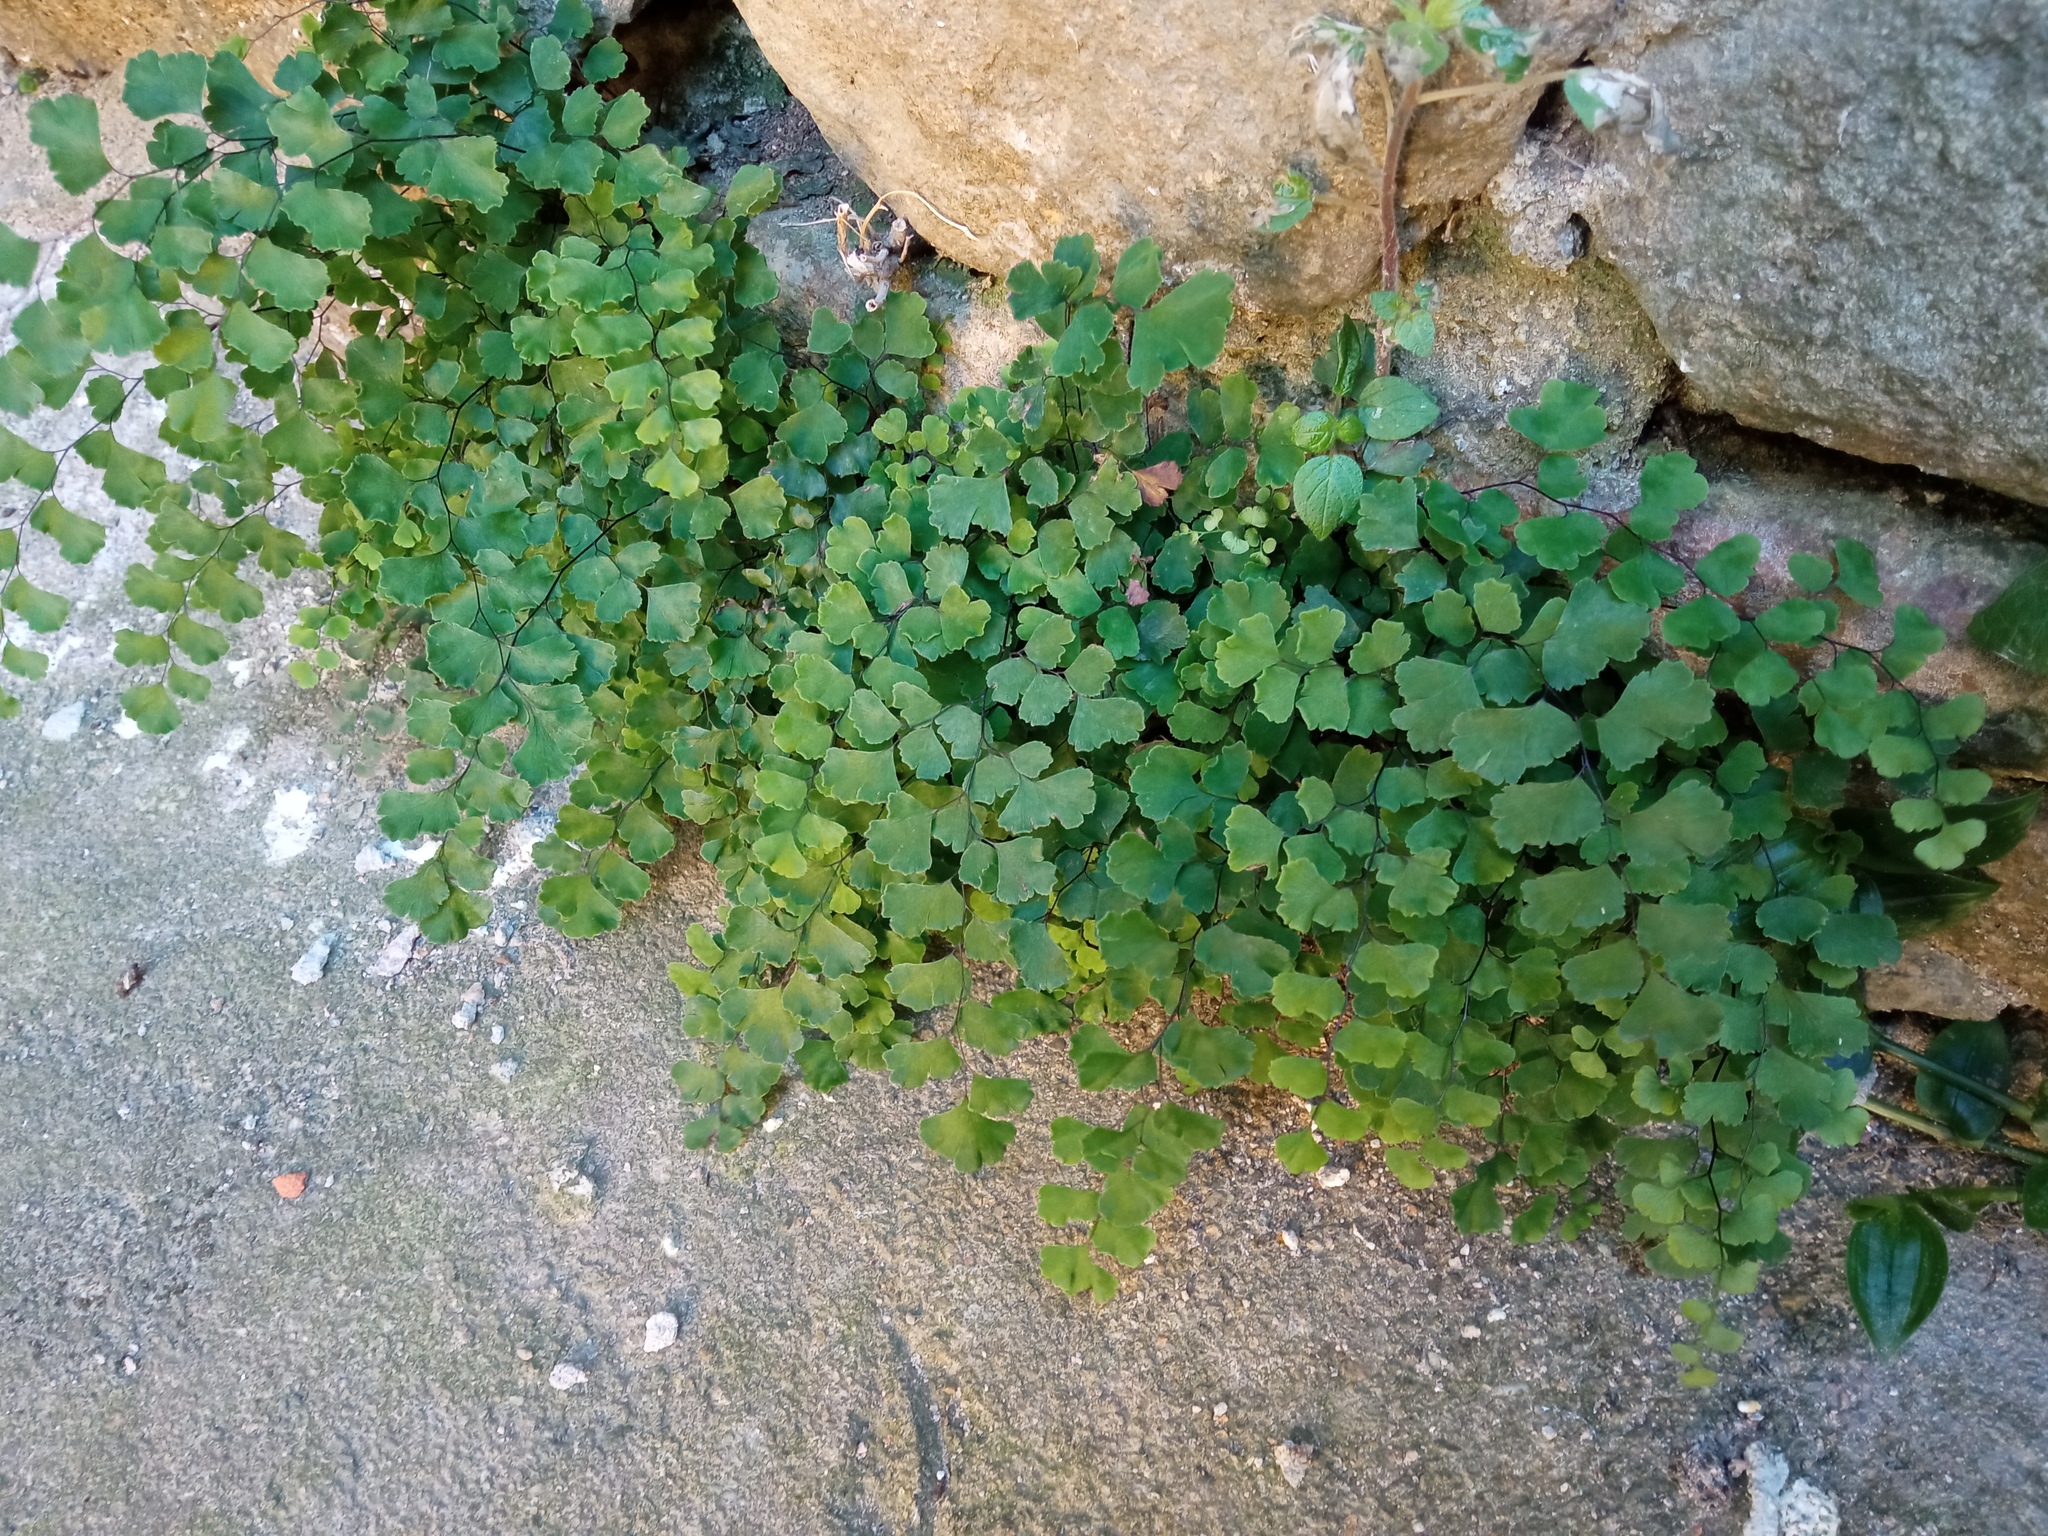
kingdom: Plantae
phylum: Tracheophyta
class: Polypodiopsida
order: Polypodiales
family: Pteridaceae
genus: Adiantum
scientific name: Adiantum capillus-veneris
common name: Maidenhair fern
